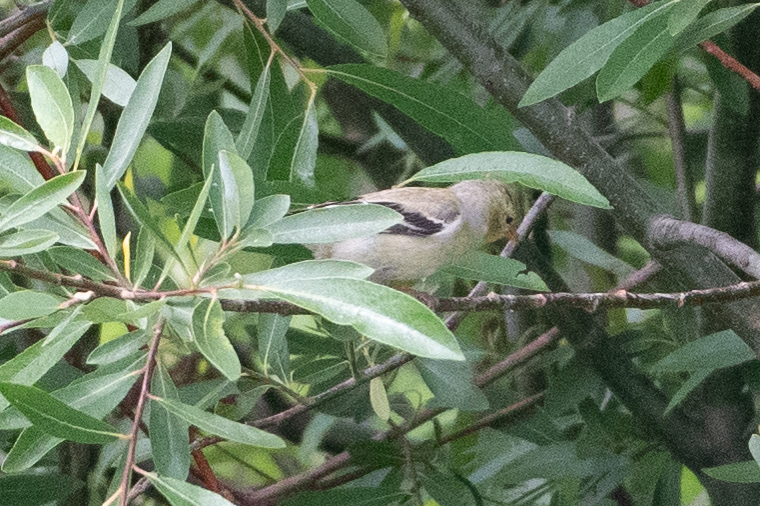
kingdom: Animalia
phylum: Chordata
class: Aves
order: Passeriformes
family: Fringillidae
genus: Spinus
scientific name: Spinus tristis
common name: American goldfinch
